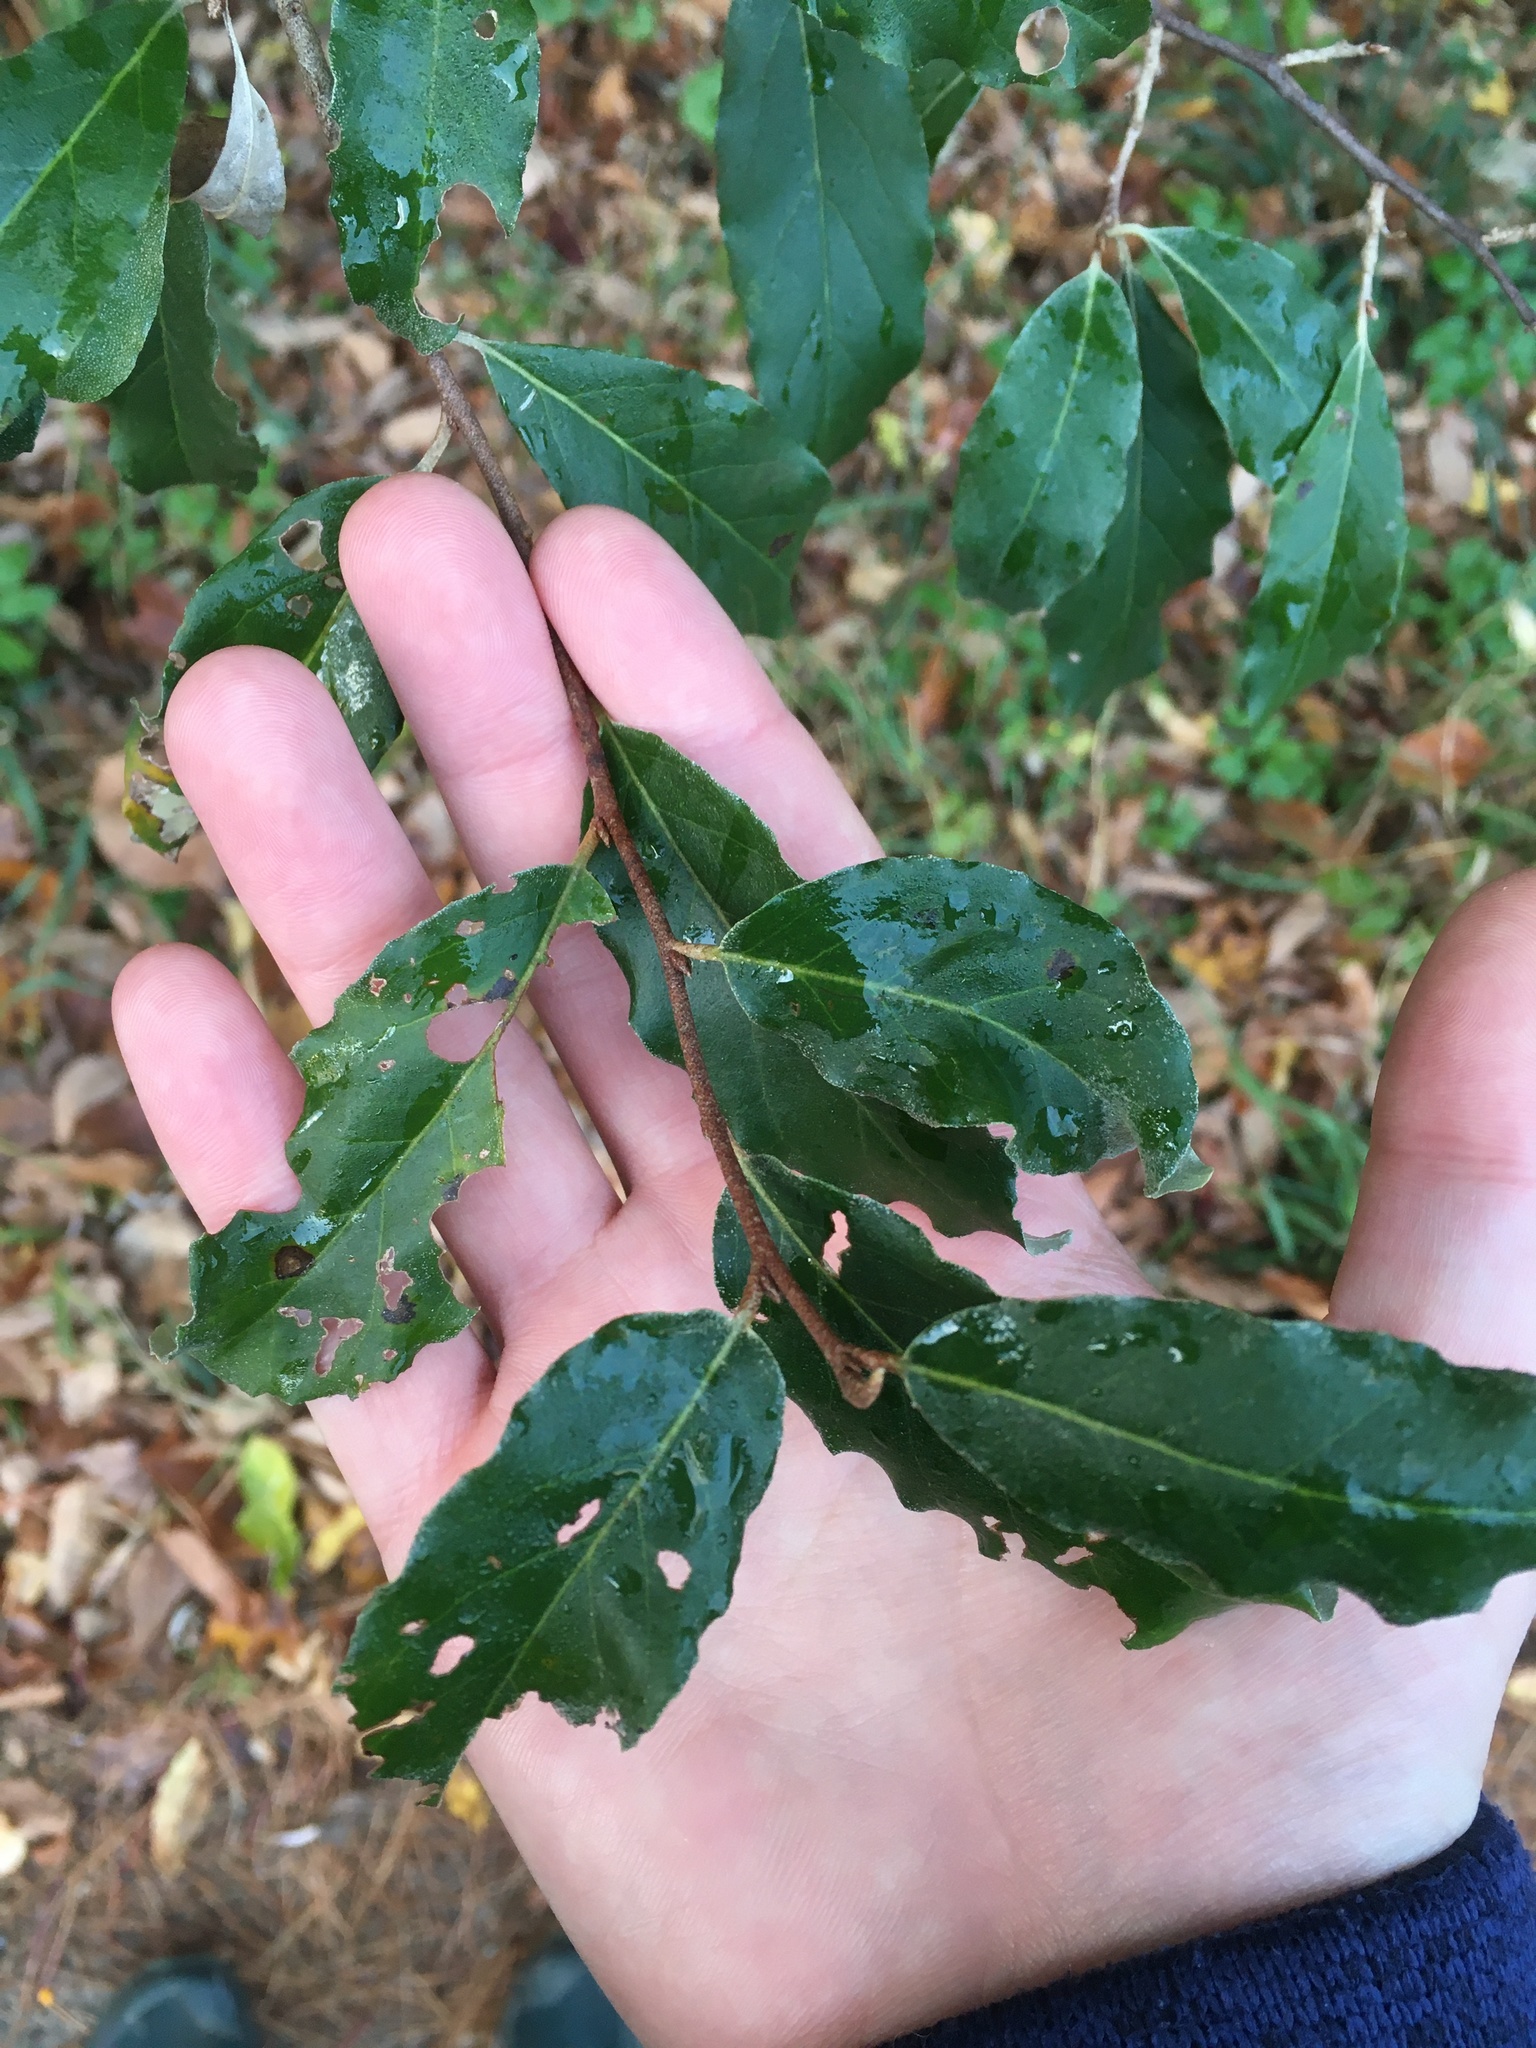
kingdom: Plantae
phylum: Tracheophyta
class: Magnoliopsida
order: Rosales
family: Elaeagnaceae
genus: Elaeagnus
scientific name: Elaeagnus umbellata
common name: Autumn olive
